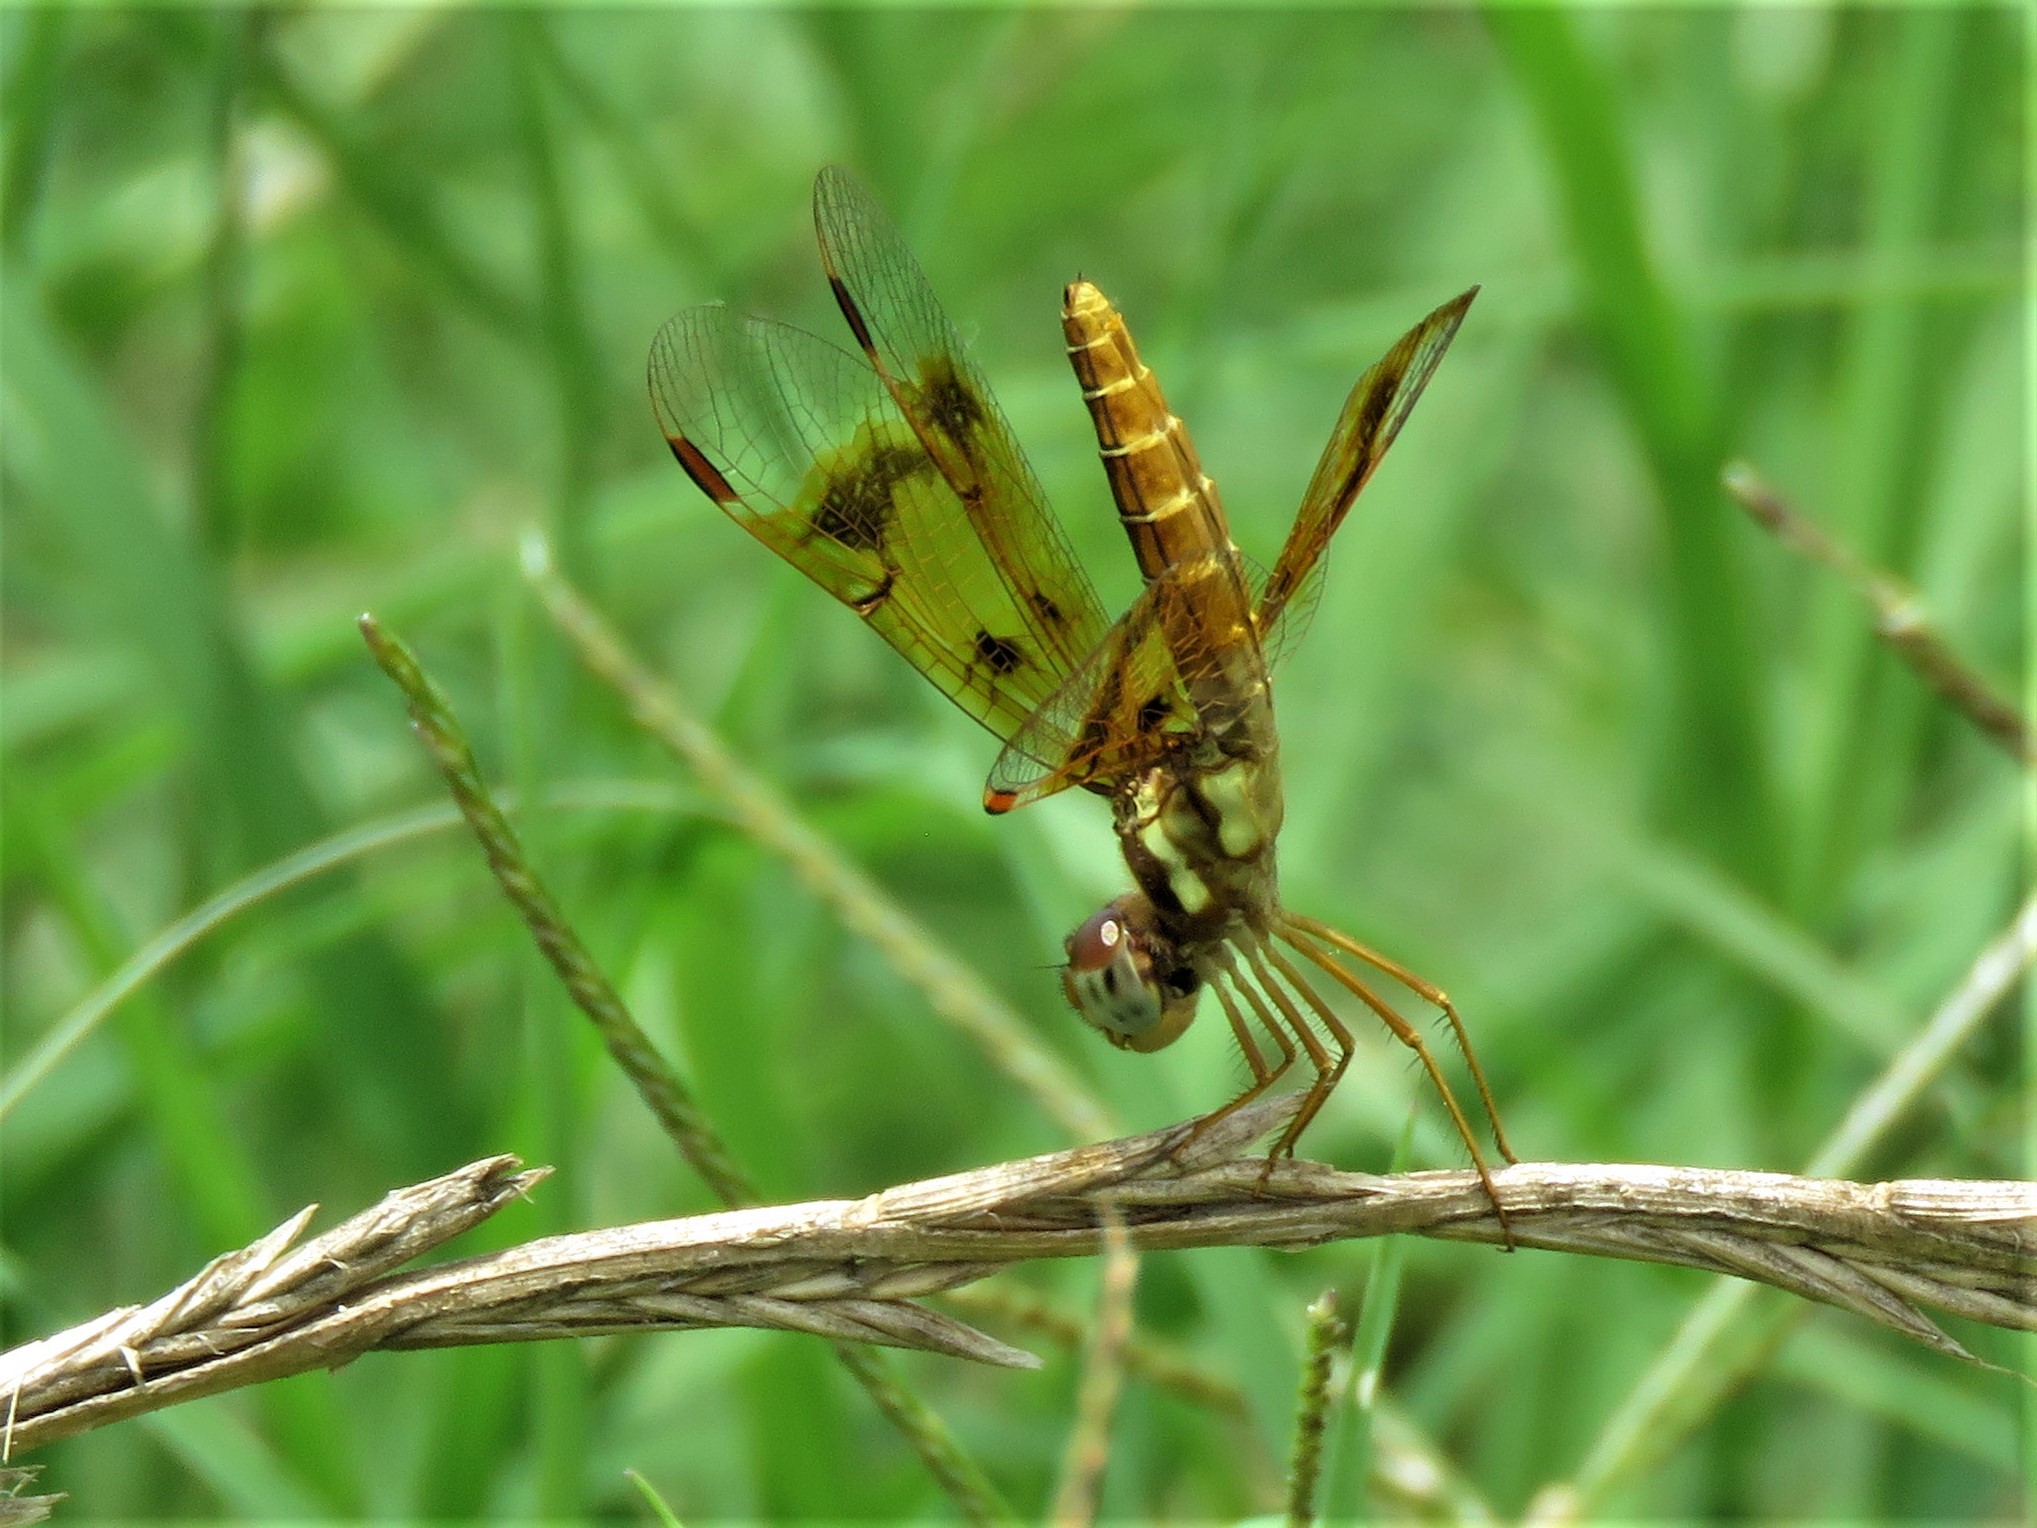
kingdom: Animalia
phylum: Arthropoda
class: Insecta
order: Odonata
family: Libellulidae
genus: Perithemis
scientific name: Perithemis tenera
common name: Eastern amberwing
